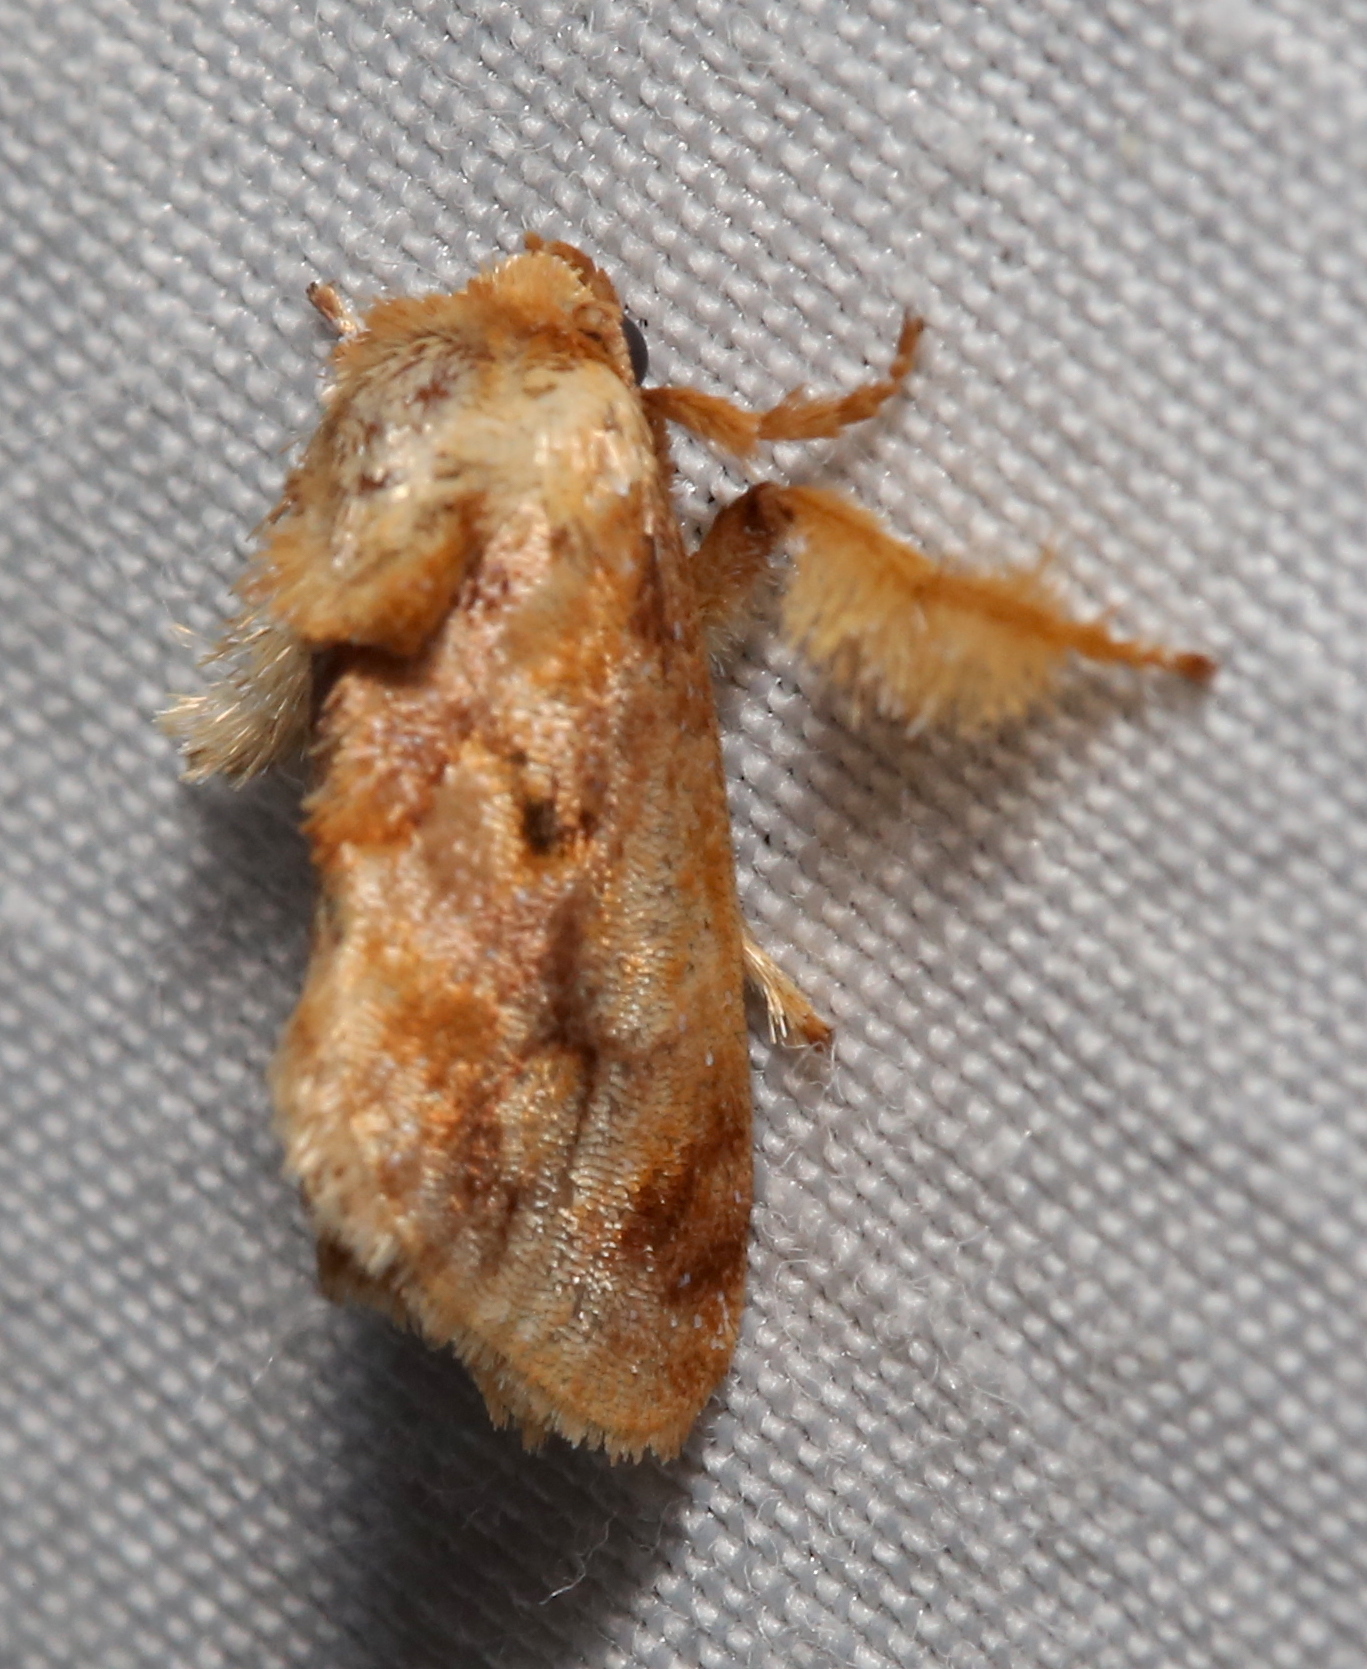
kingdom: Animalia
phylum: Arthropoda
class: Insecta
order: Lepidoptera
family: Limacodidae
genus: Isochaetes
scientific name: Isochaetes beutenmuelleri
